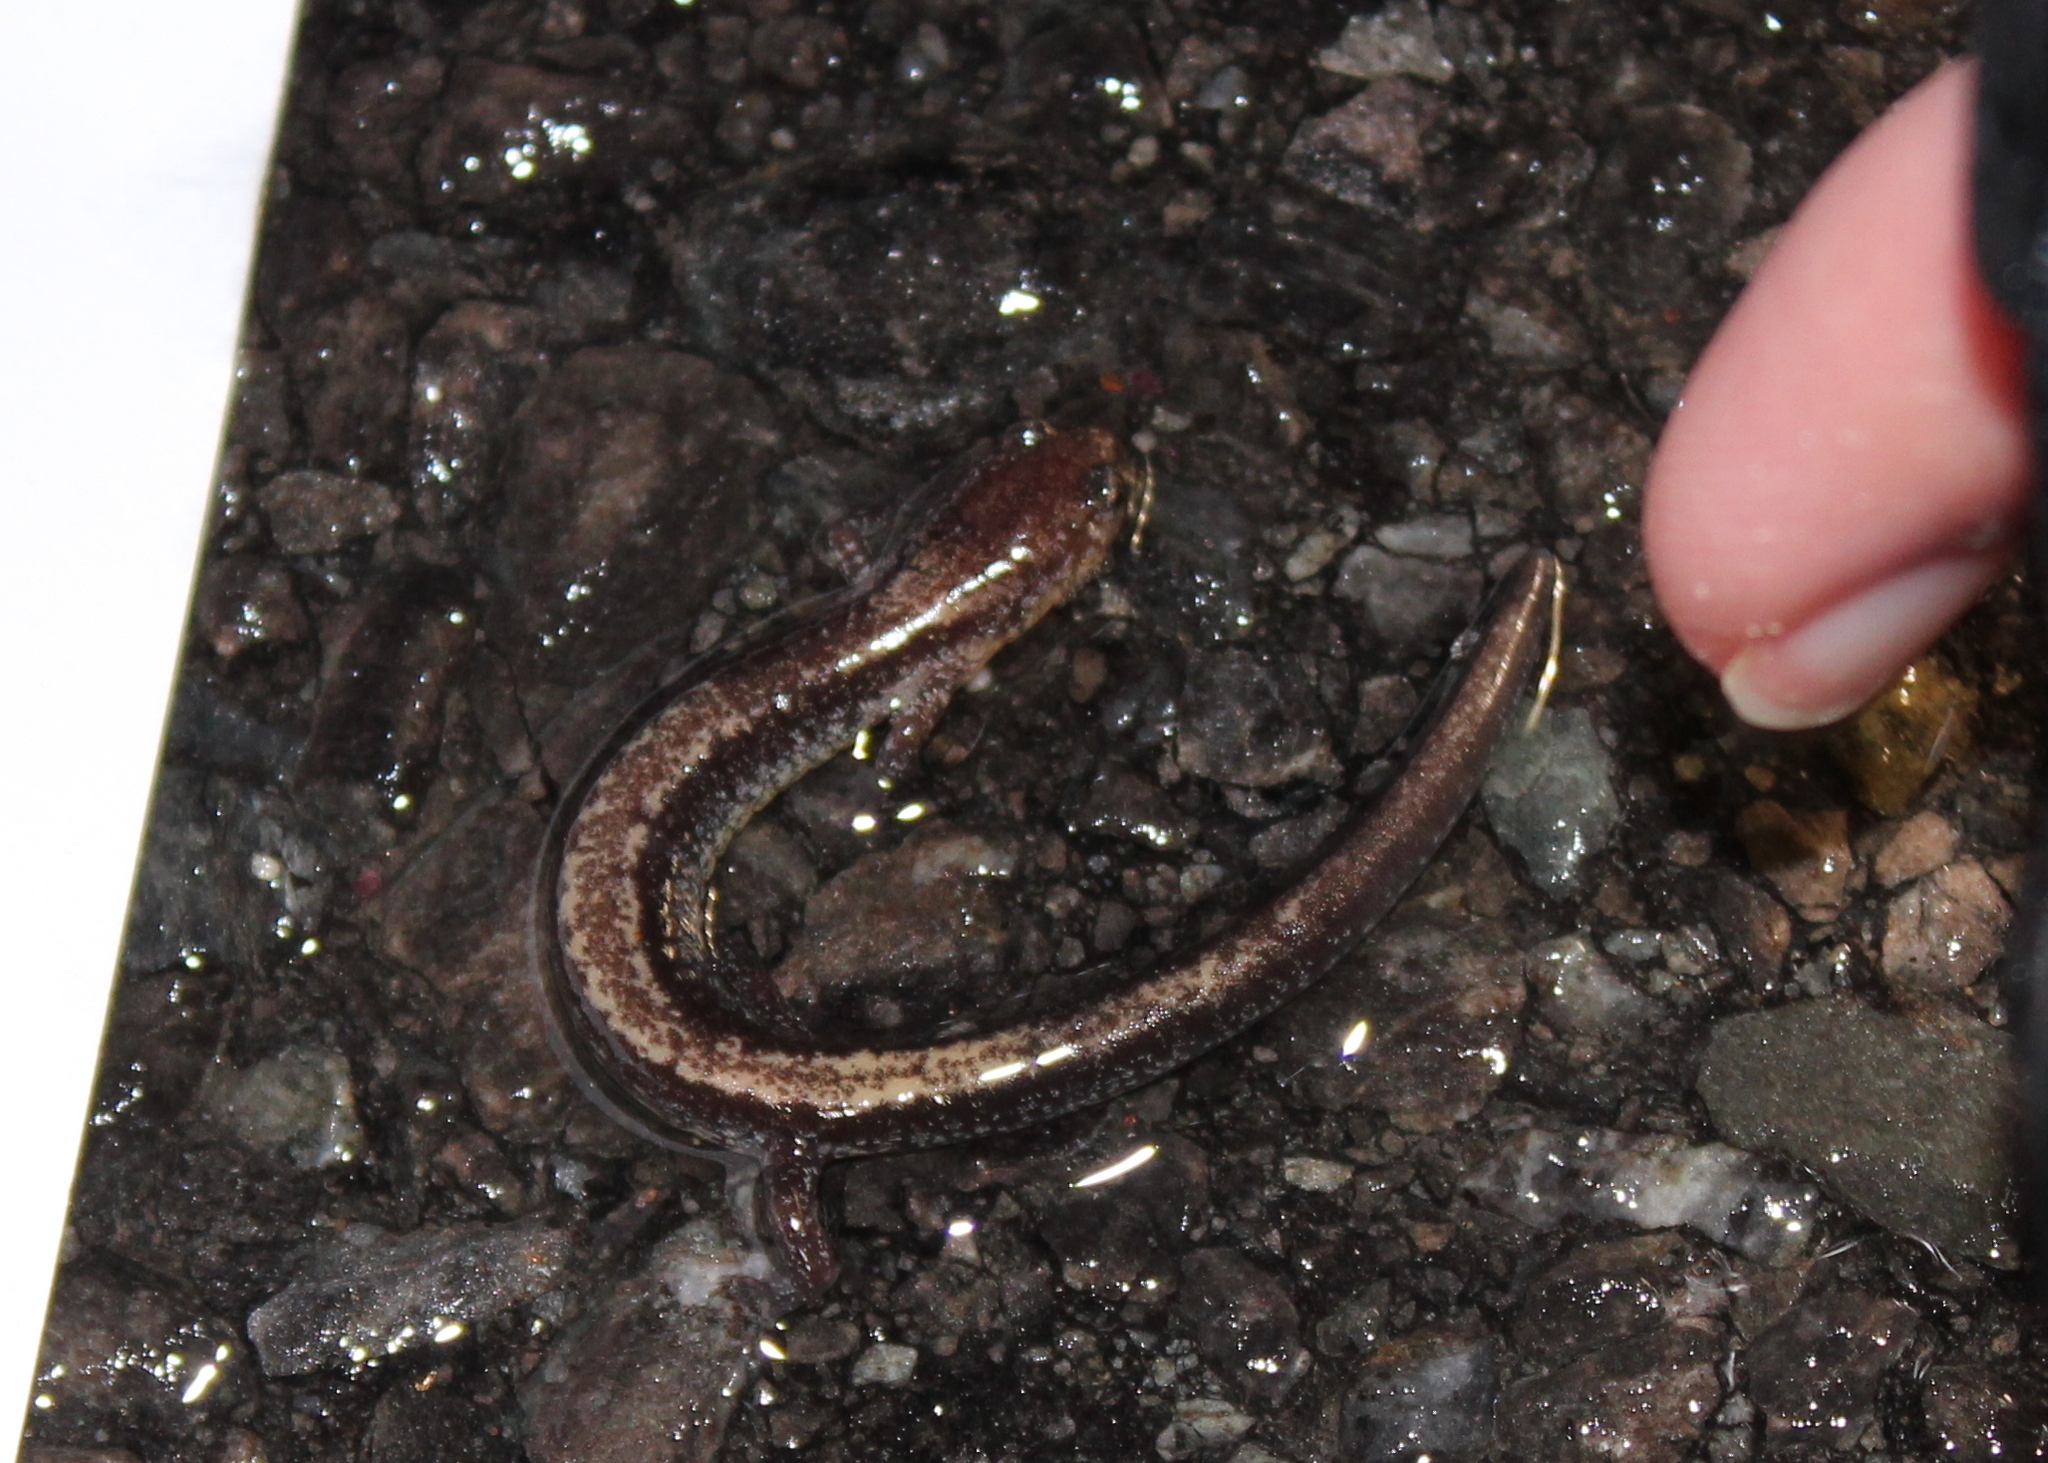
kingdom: Animalia
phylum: Chordata
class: Amphibia
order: Caudata
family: Plethodontidae
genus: Plethodon
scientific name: Plethodon cinereus
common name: Redback salamander
